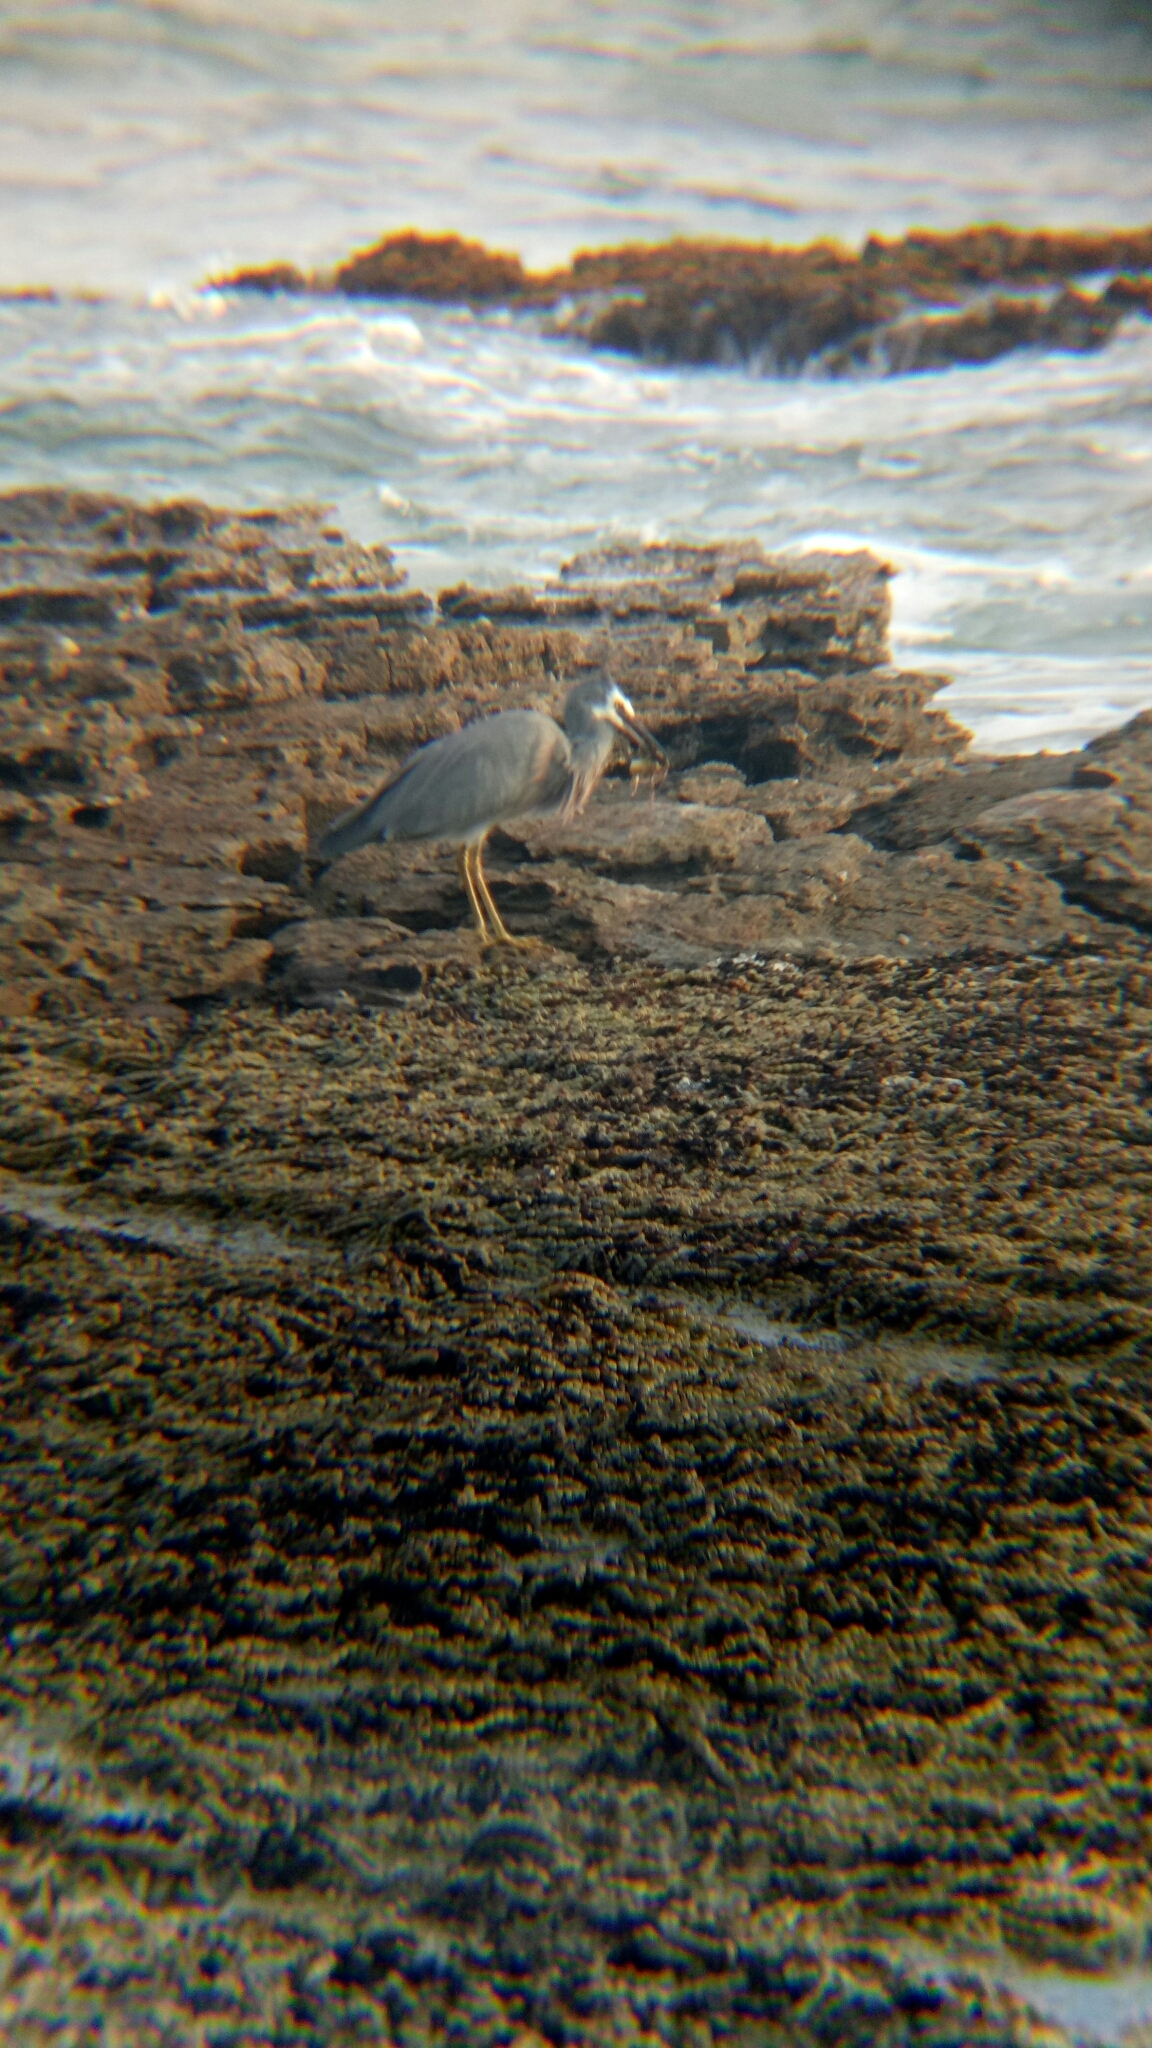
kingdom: Animalia
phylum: Chordata
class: Aves
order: Pelecaniformes
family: Ardeidae
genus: Egretta
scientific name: Egretta novaehollandiae
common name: White-faced heron
